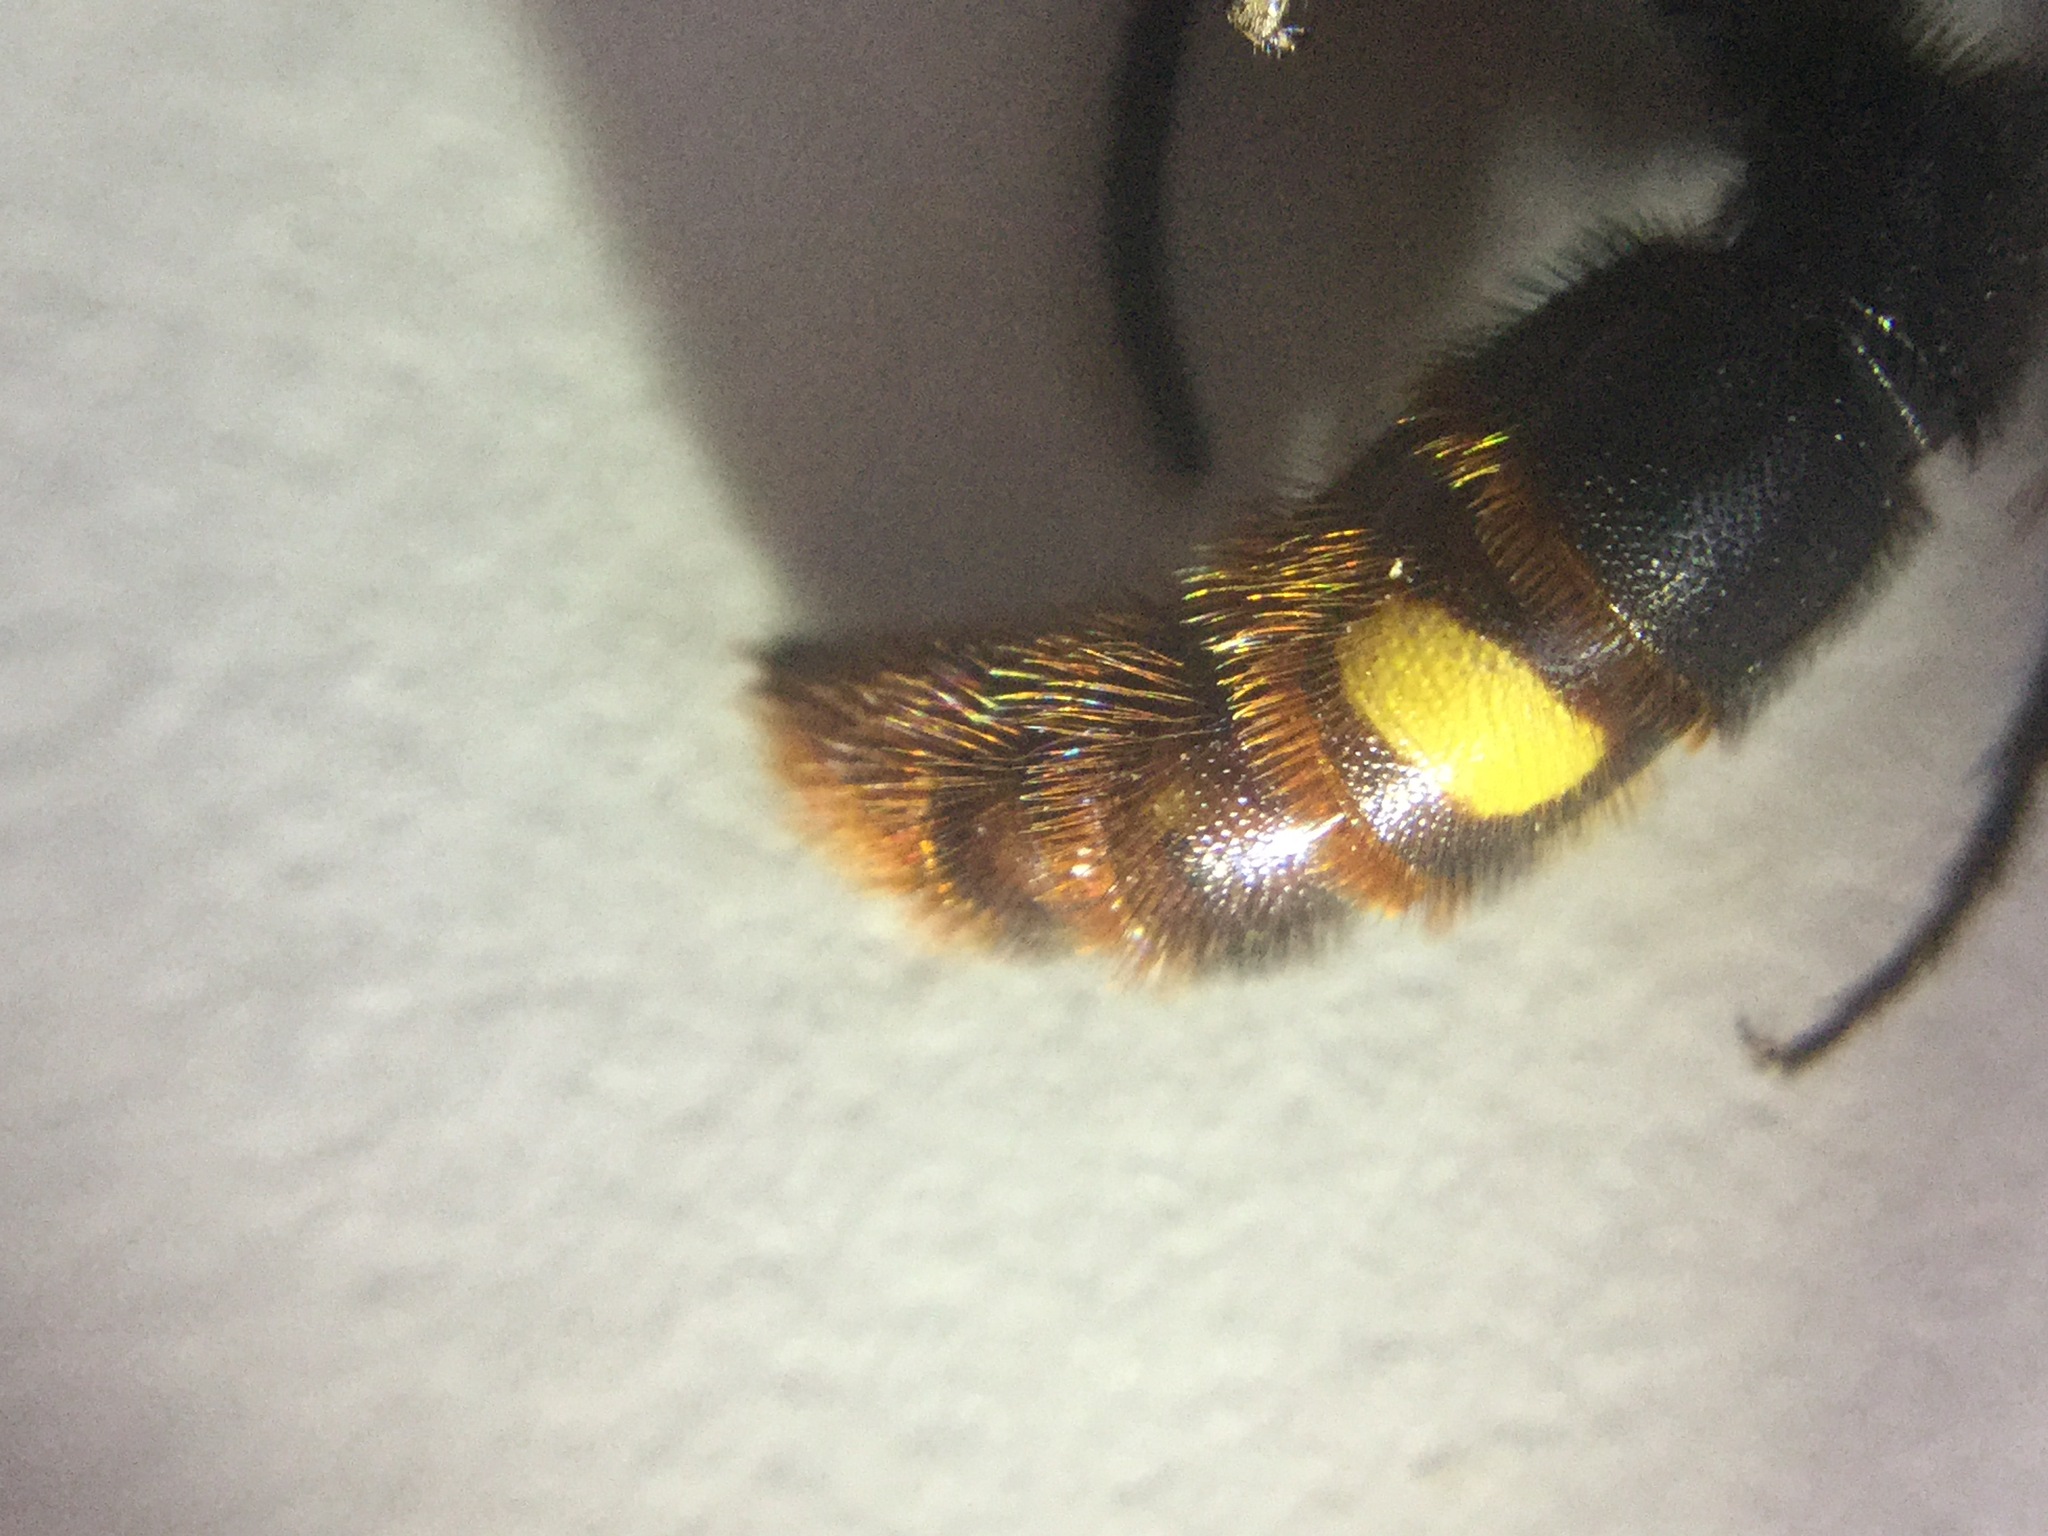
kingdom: Animalia
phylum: Arthropoda
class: Insecta
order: Hymenoptera
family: Scoliidae
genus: Scolia
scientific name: Scolia dubia
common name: Blue-winged scoliid wasp
